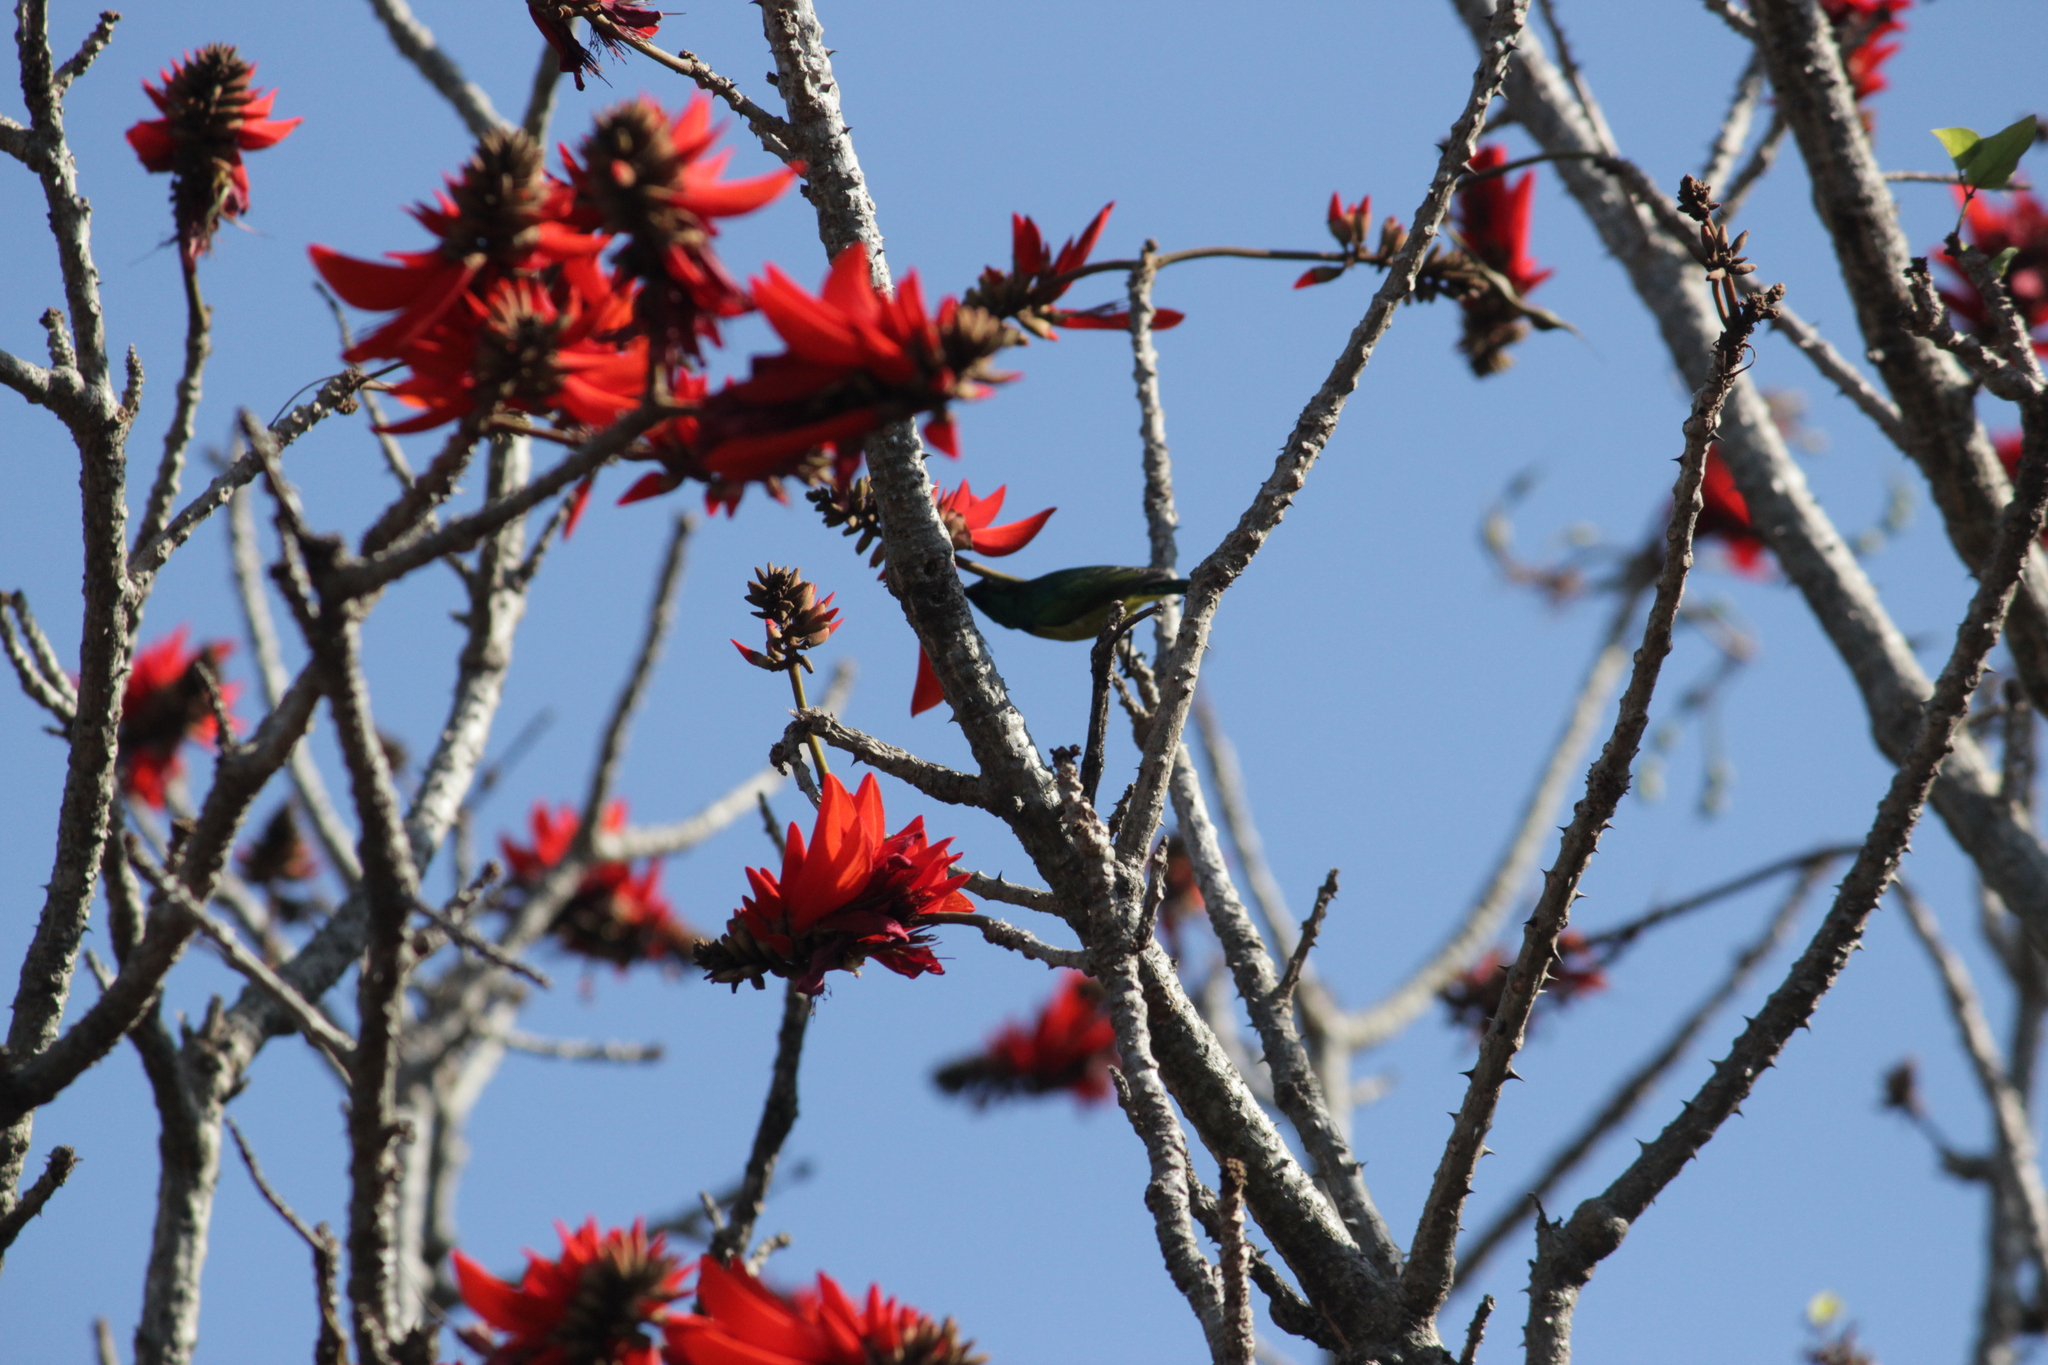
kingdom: Animalia
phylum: Chordata
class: Aves
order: Passeriformes
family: Nectariniidae
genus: Hedydipna
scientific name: Hedydipna collaris
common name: Collared sunbird
